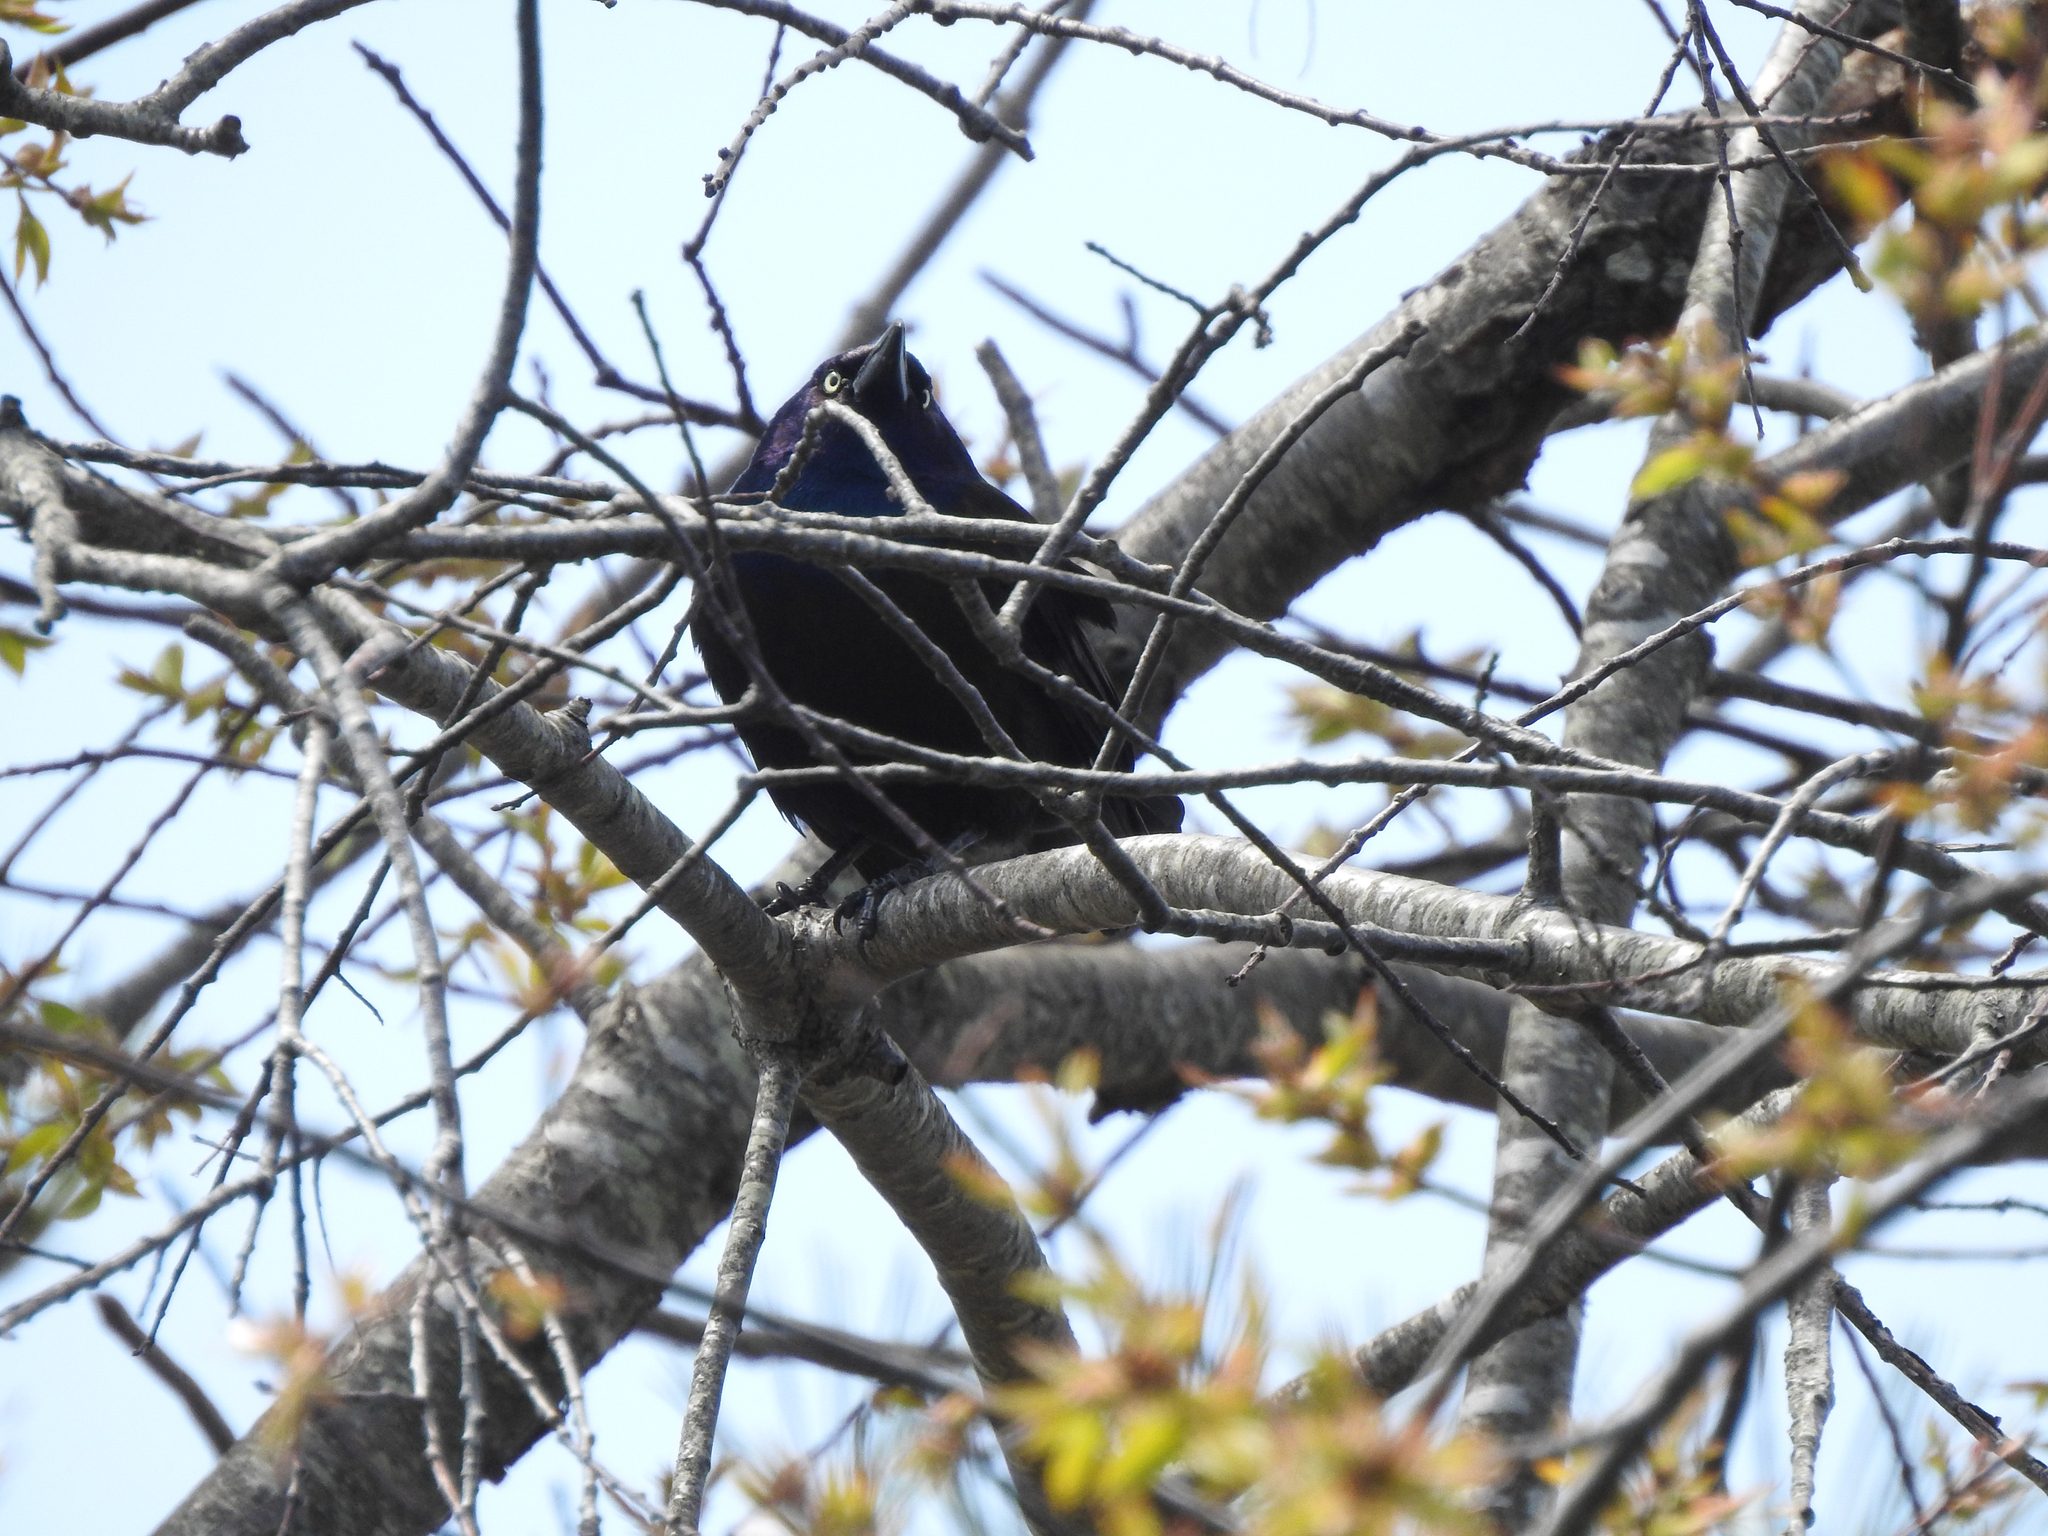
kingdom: Animalia
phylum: Chordata
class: Aves
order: Passeriformes
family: Icteridae
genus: Quiscalus
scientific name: Quiscalus quiscula
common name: Common grackle
